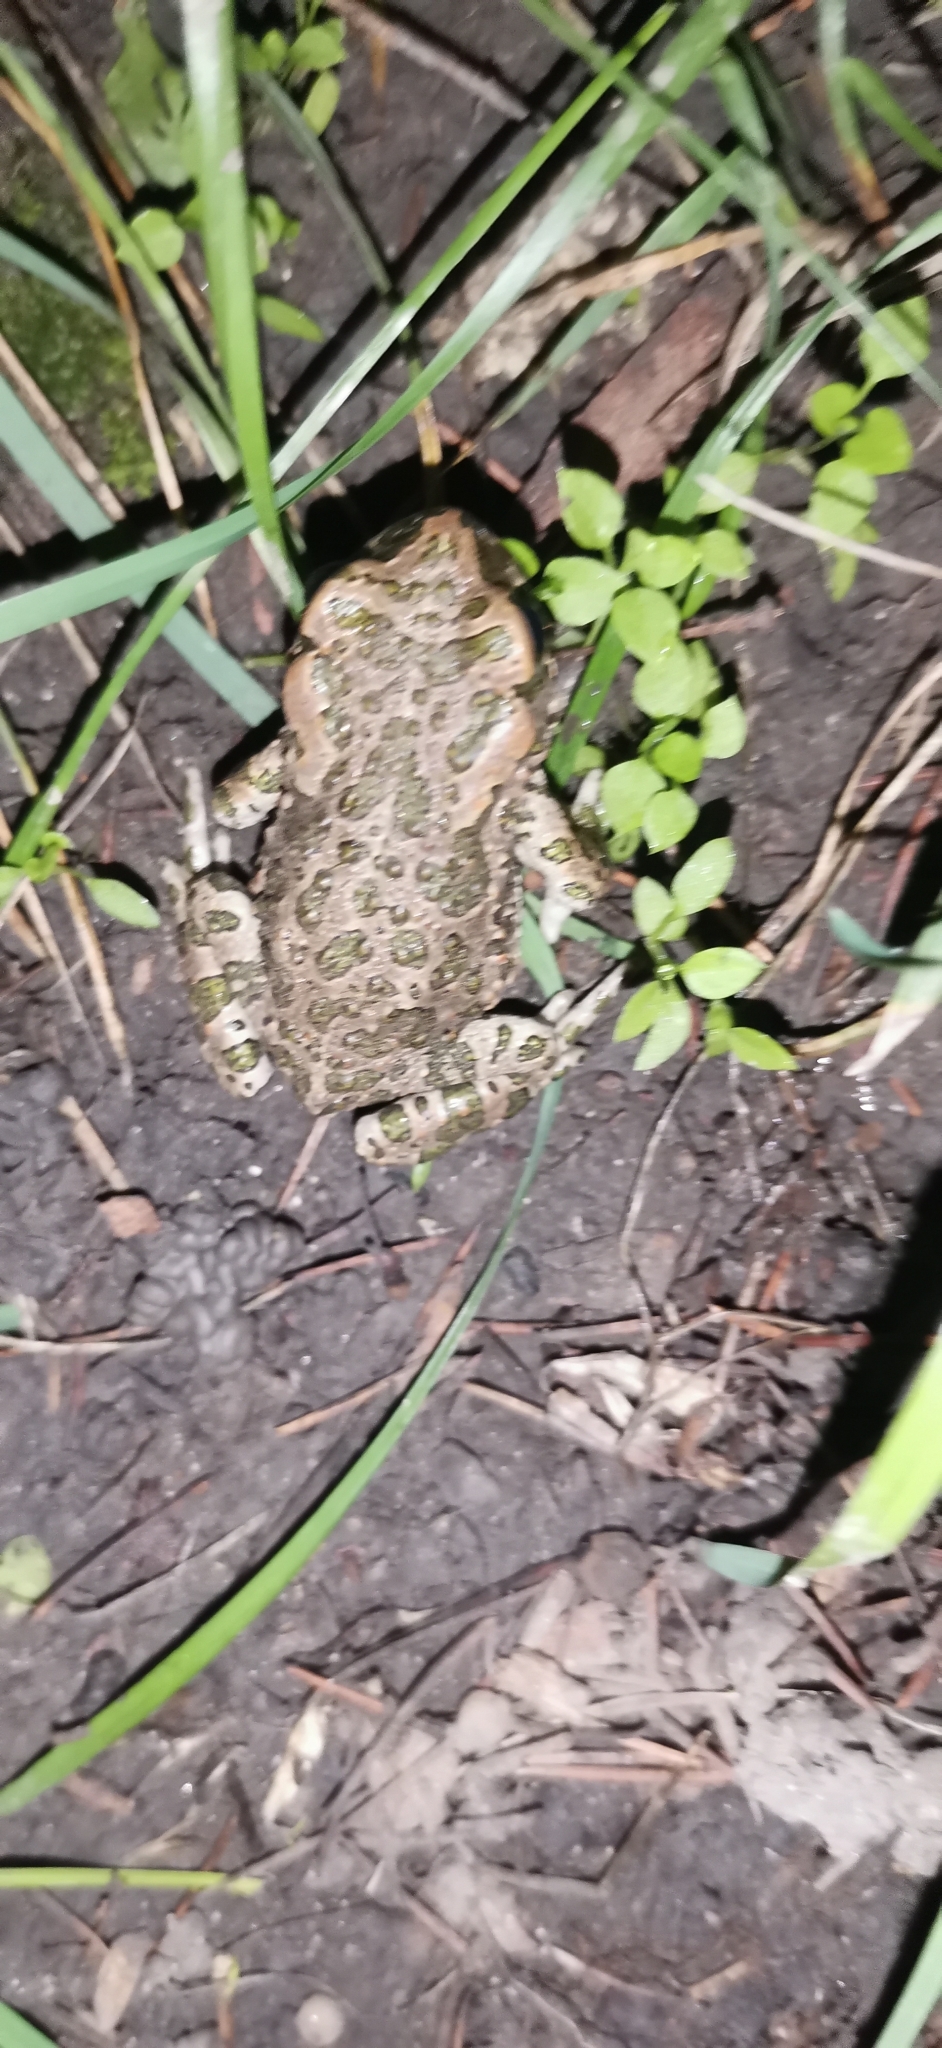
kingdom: Animalia
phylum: Chordata
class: Amphibia
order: Anura
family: Bufonidae
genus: Bufotes
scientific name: Bufotes viridis
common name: European green toad
